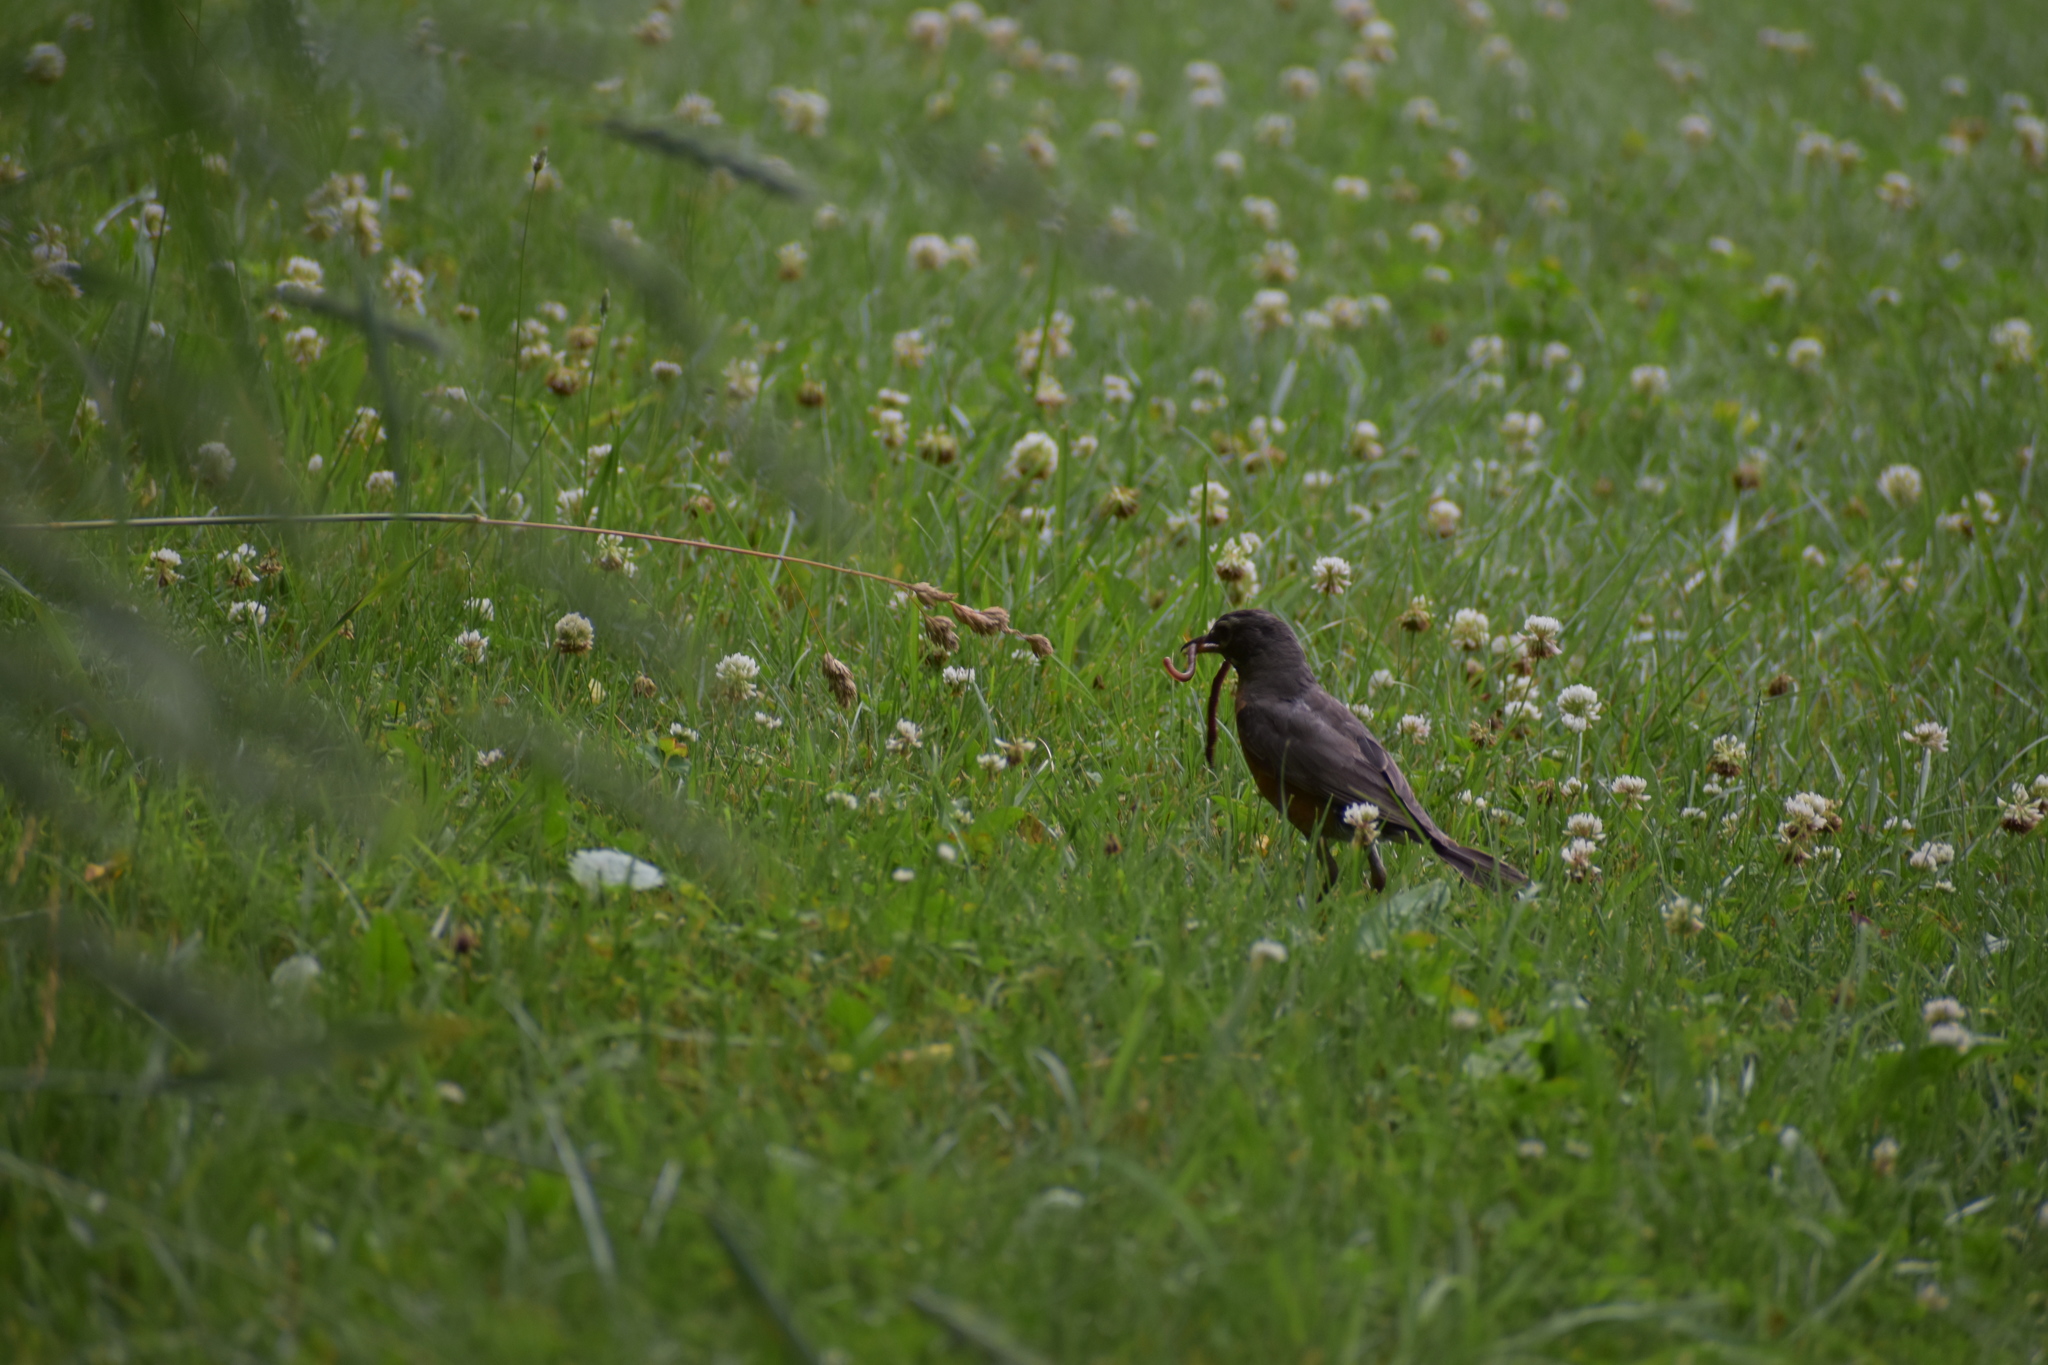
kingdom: Animalia
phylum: Chordata
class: Aves
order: Passeriformes
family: Turdidae
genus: Turdus
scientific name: Turdus migratorius
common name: American robin
